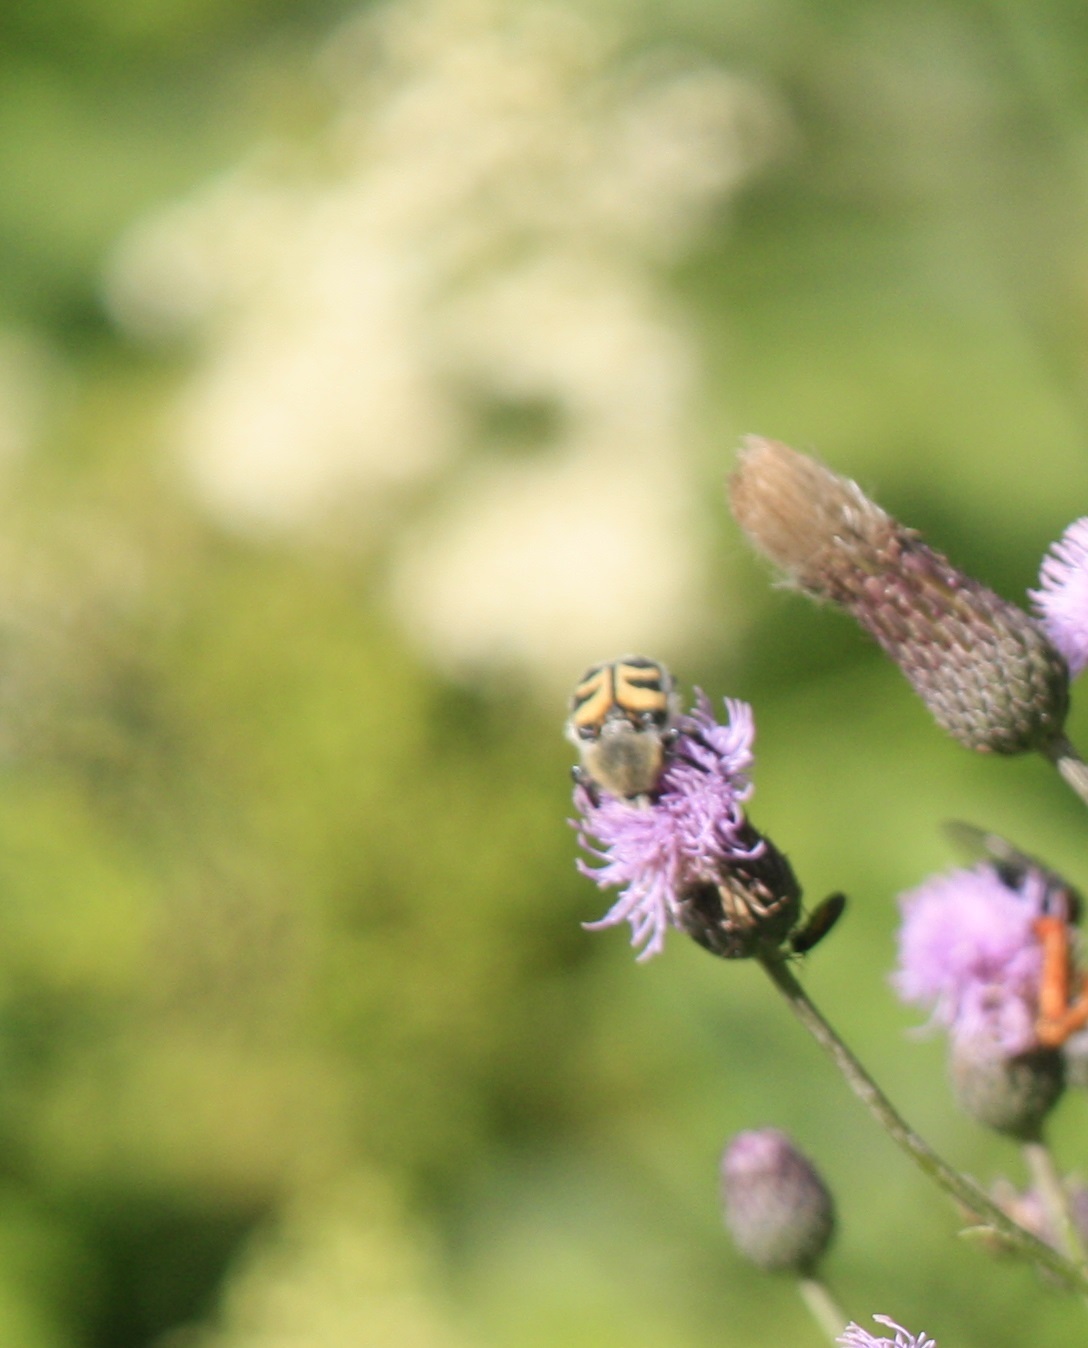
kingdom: Animalia
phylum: Arthropoda
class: Insecta
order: Coleoptera
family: Scarabaeidae
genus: Trichius
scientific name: Trichius fasciatus
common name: Bee beetle
